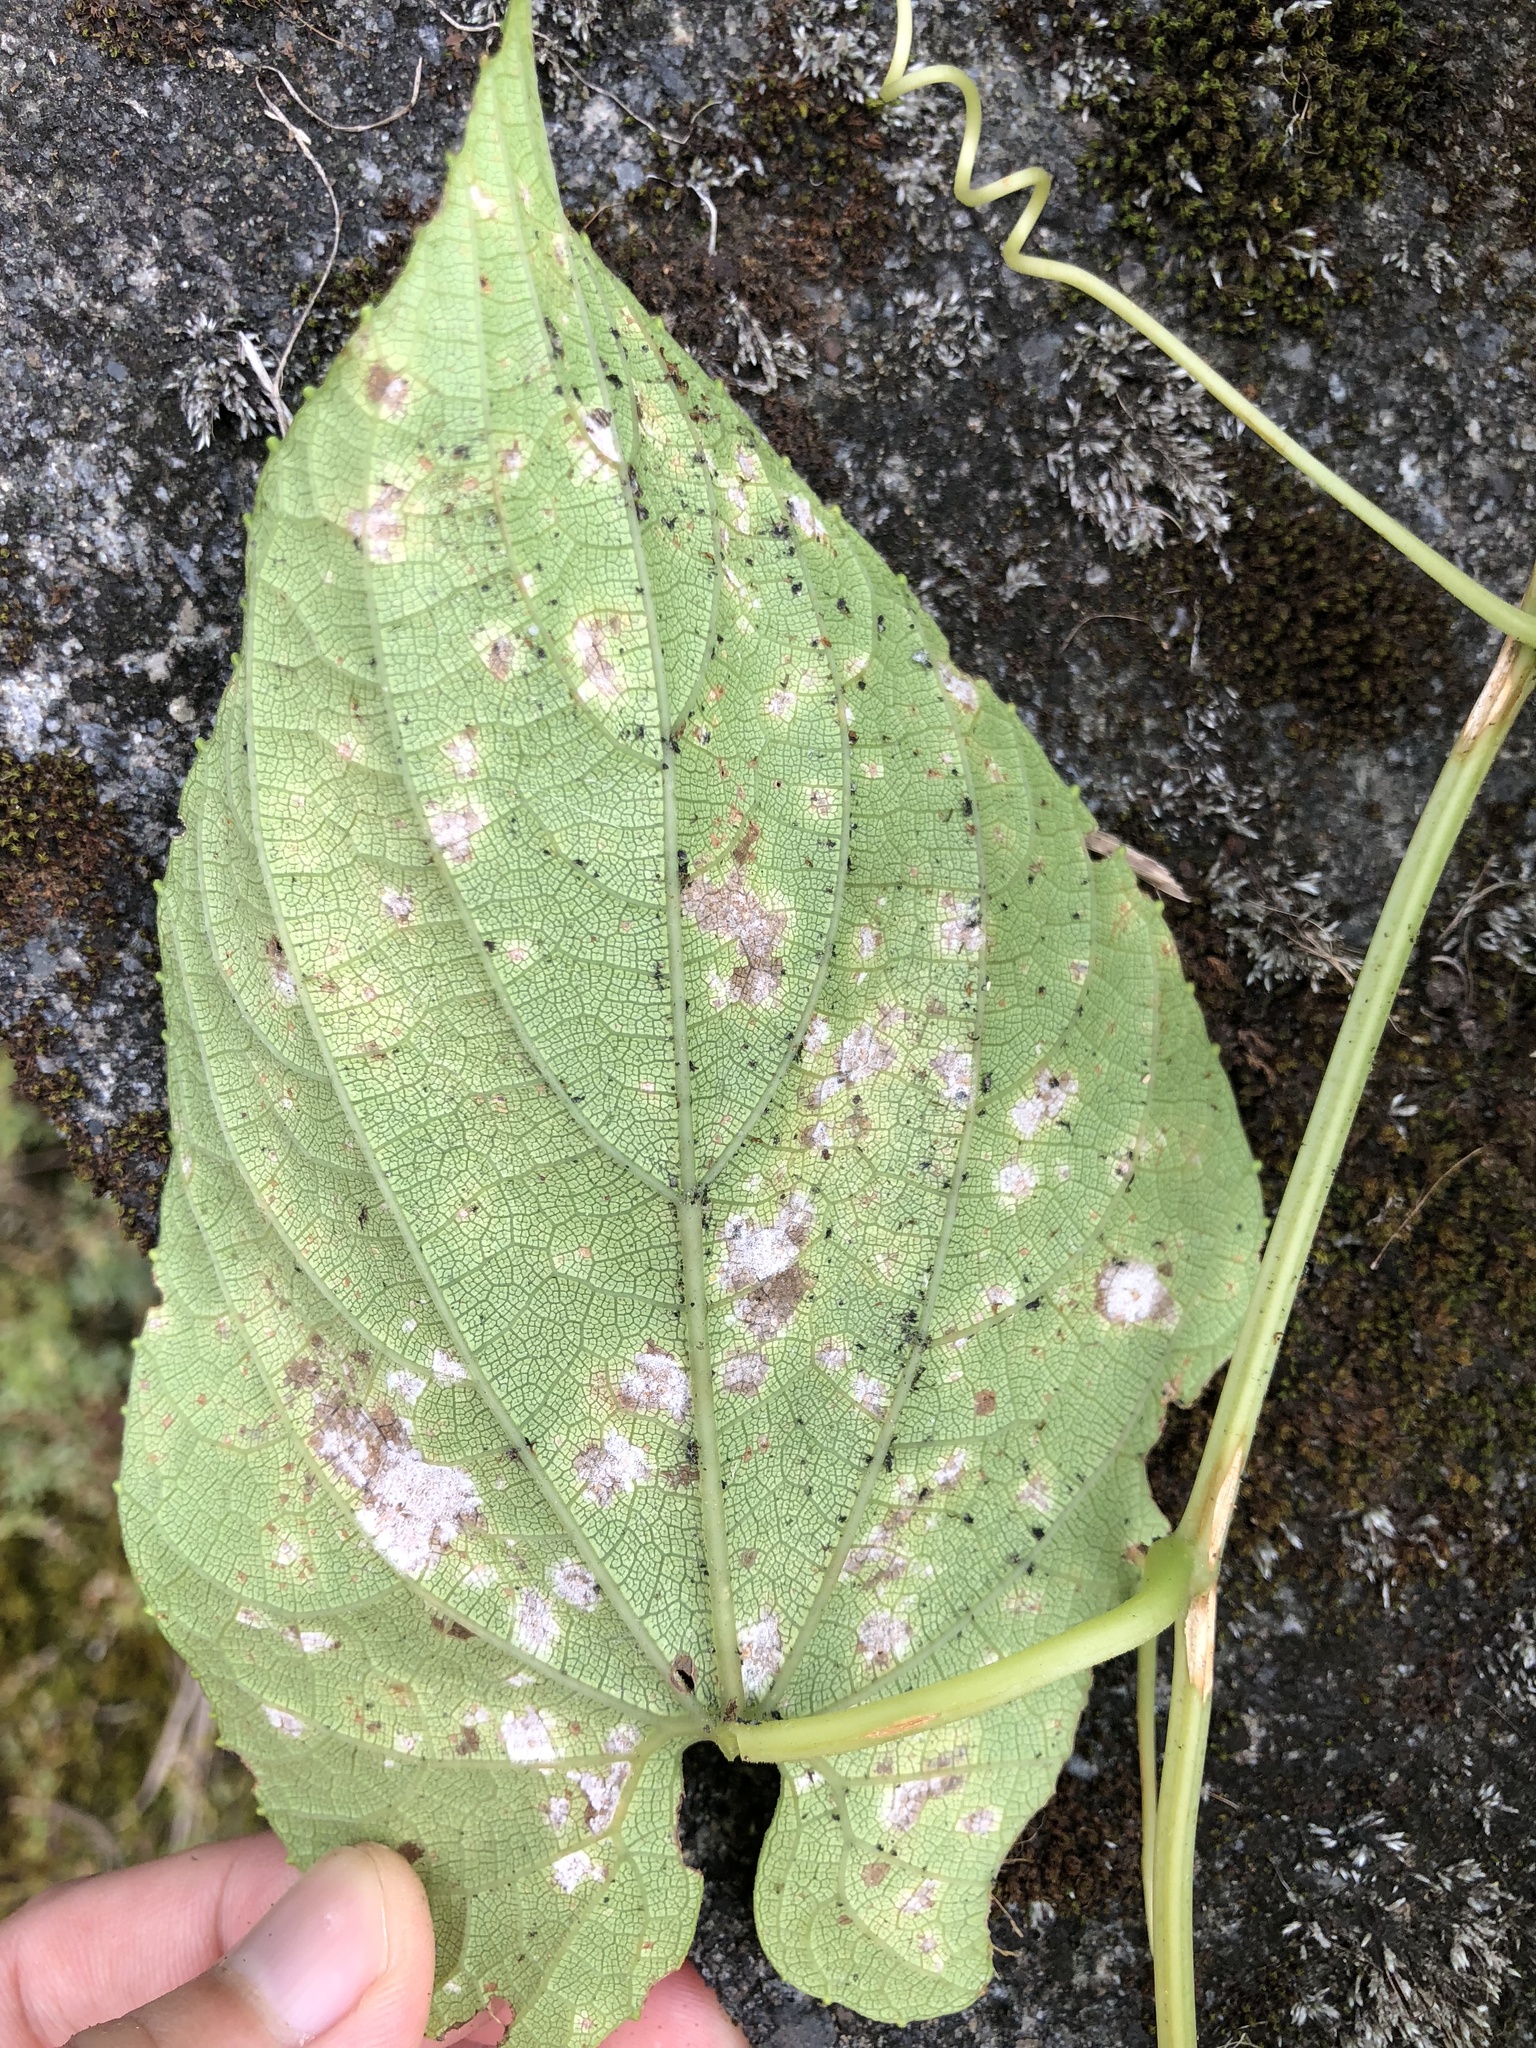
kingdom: Plantae
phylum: Tracheophyta
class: Magnoliopsida
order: Cucurbitales
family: Cucurbitaceae
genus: Thladiantha
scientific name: Thladiantha punctata
